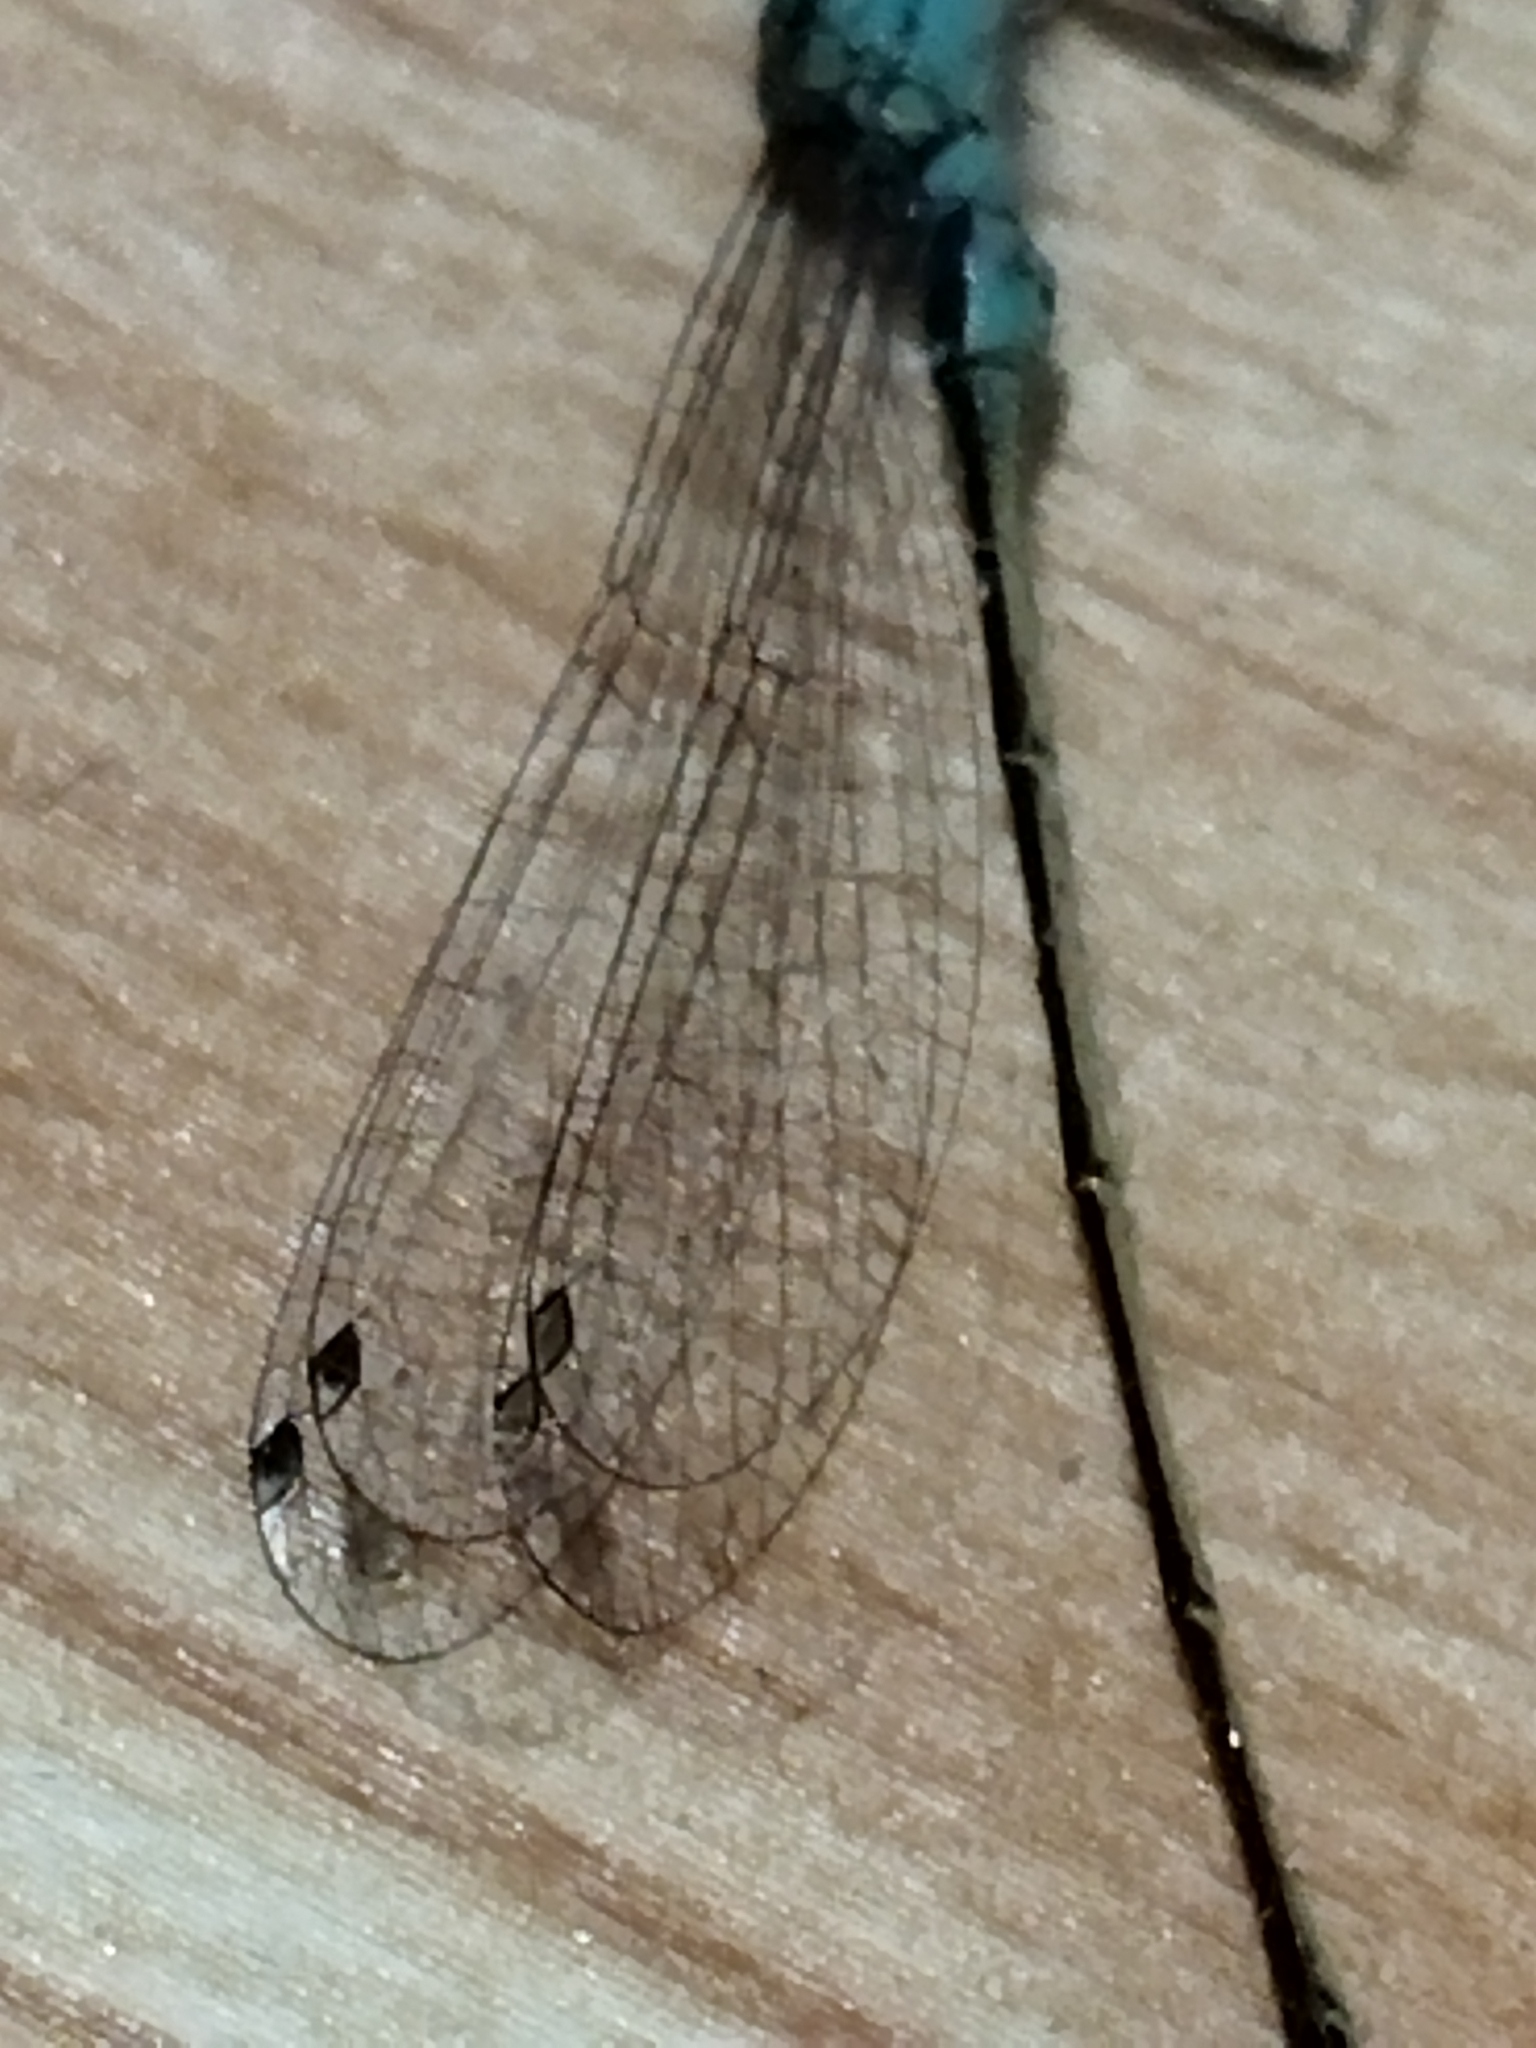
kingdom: Animalia
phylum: Arthropoda
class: Insecta
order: Odonata
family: Coenagrionidae
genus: Ischnura
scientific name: Ischnura elegans
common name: Blue-tailed damselfly
